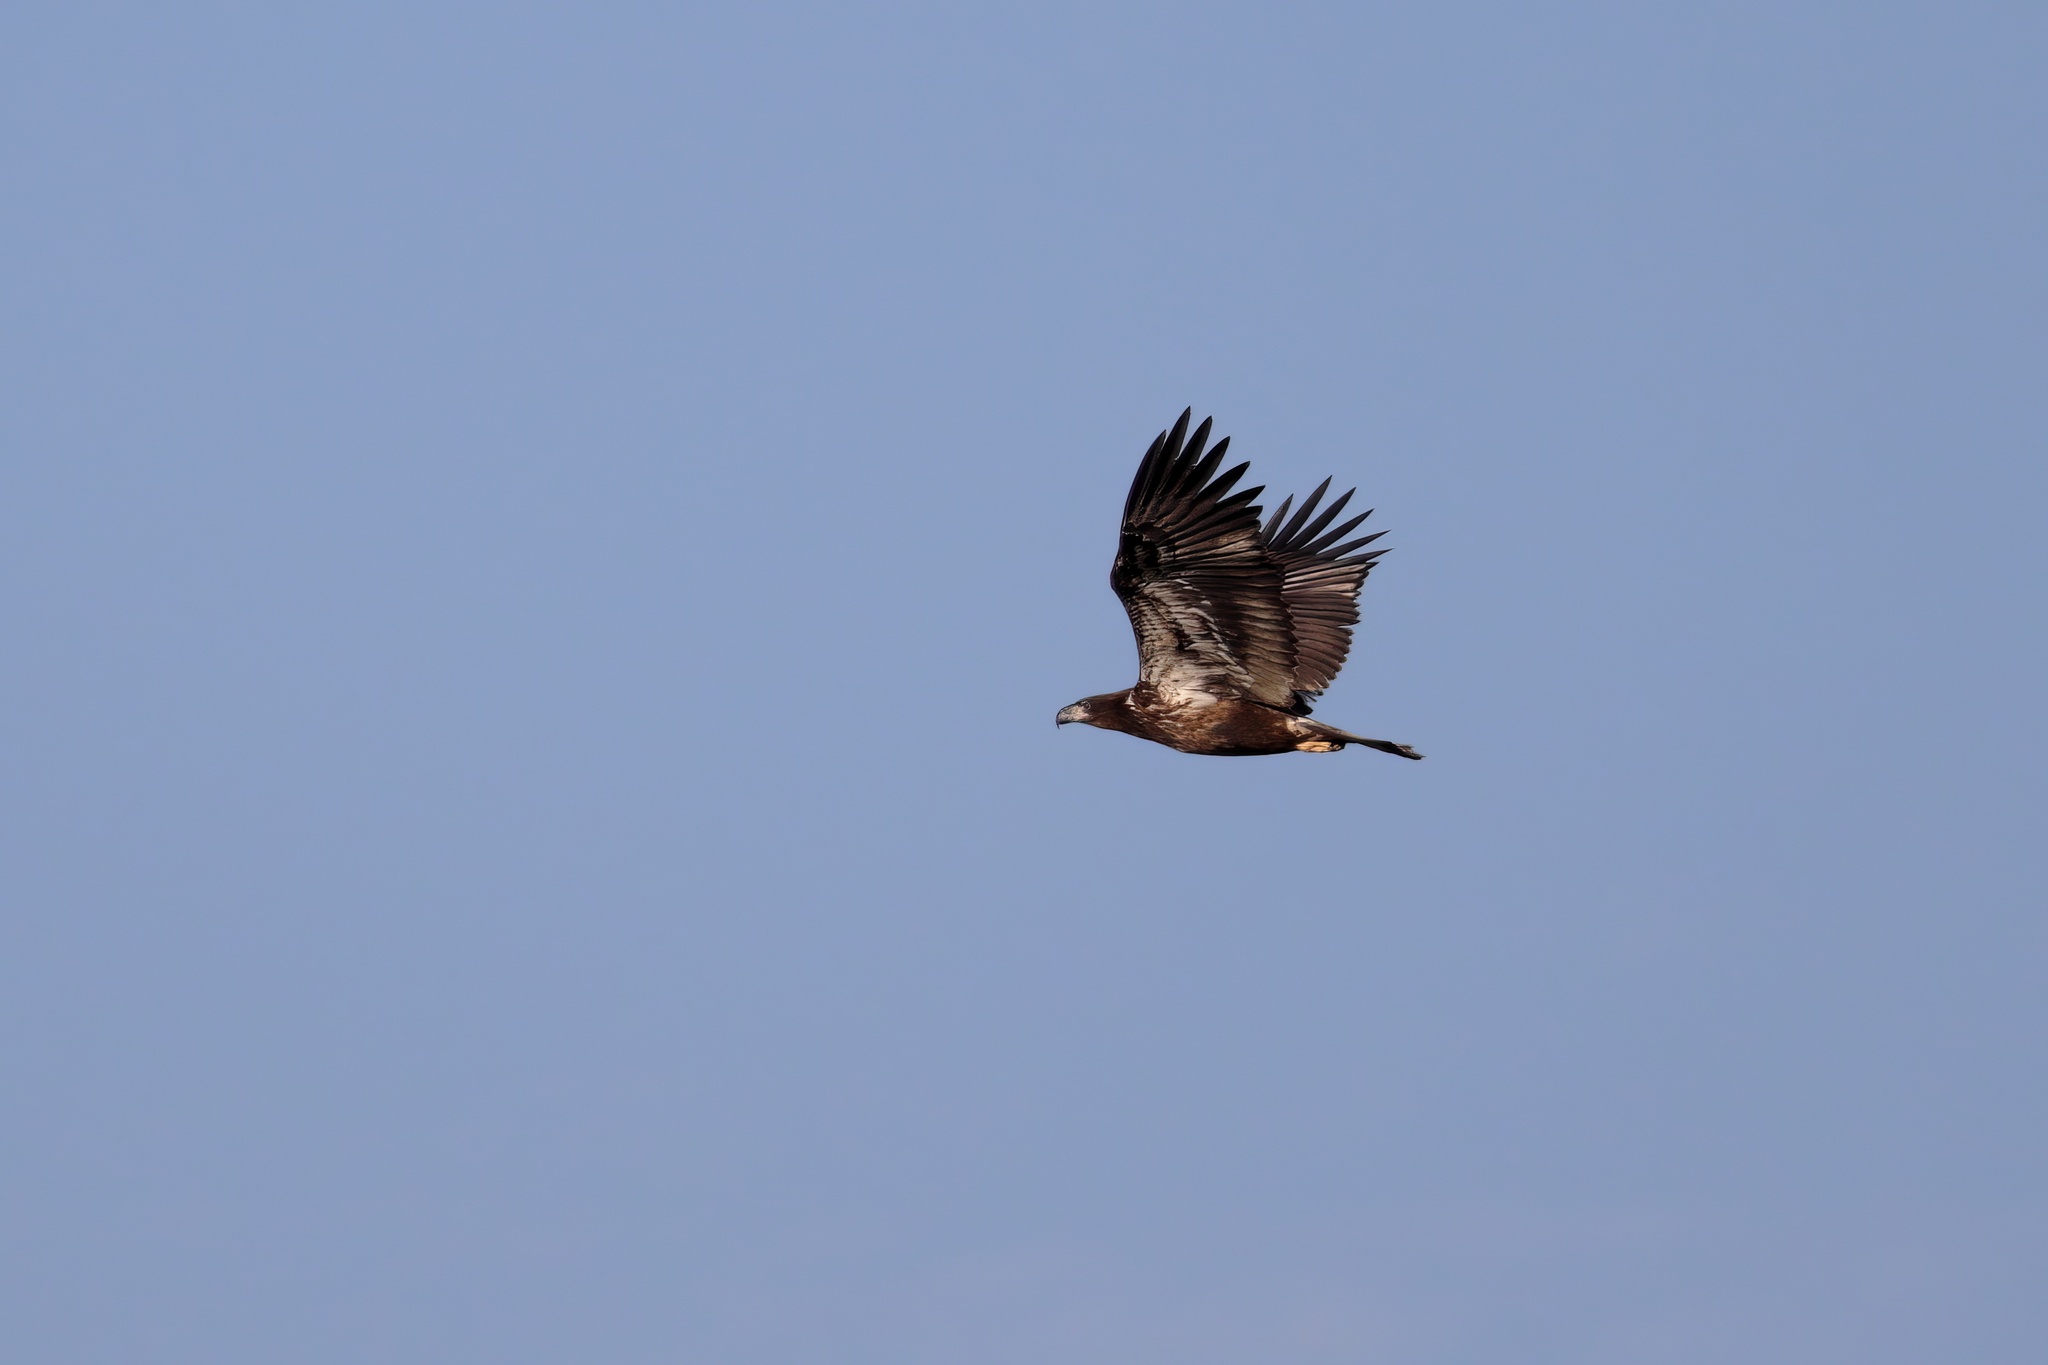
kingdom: Animalia
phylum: Chordata
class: Aves
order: Accipitriformes
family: Accipitridae
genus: Haliaeetus
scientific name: Haliaeetus leucocephalus
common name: Bald eagle
